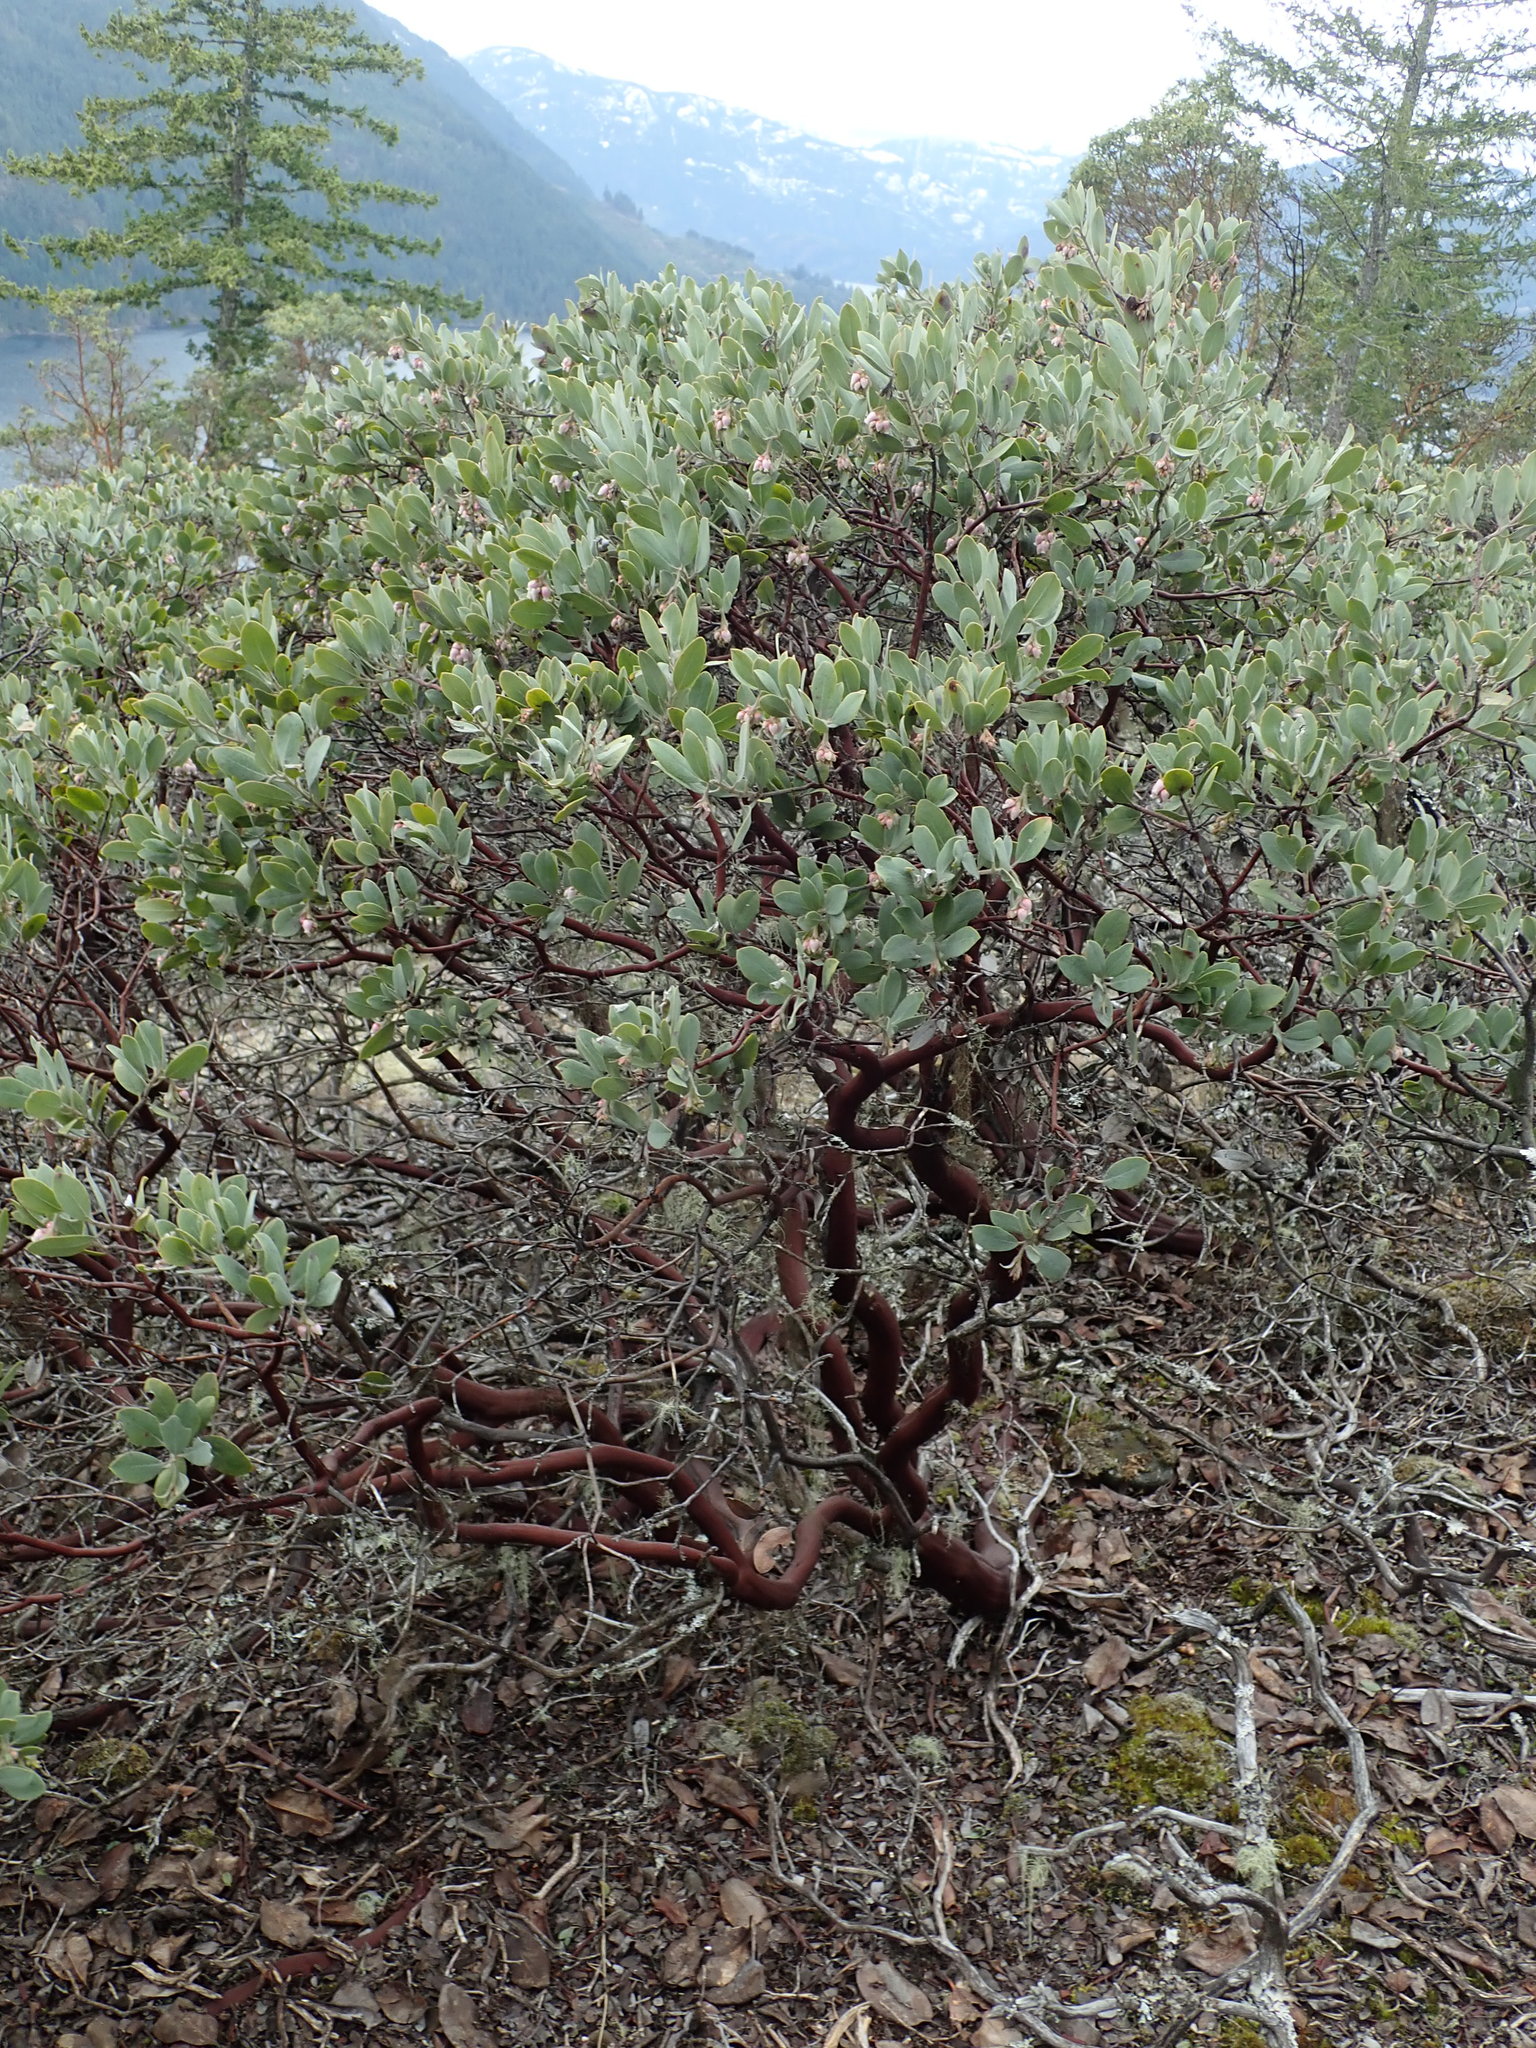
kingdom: Plantae
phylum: Tracheophyta
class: Magnoliopsida
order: Ericales
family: Ericaceae
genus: Arctostaphylos
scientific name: Arctostaphylos columbiana
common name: Bristly bearberry
